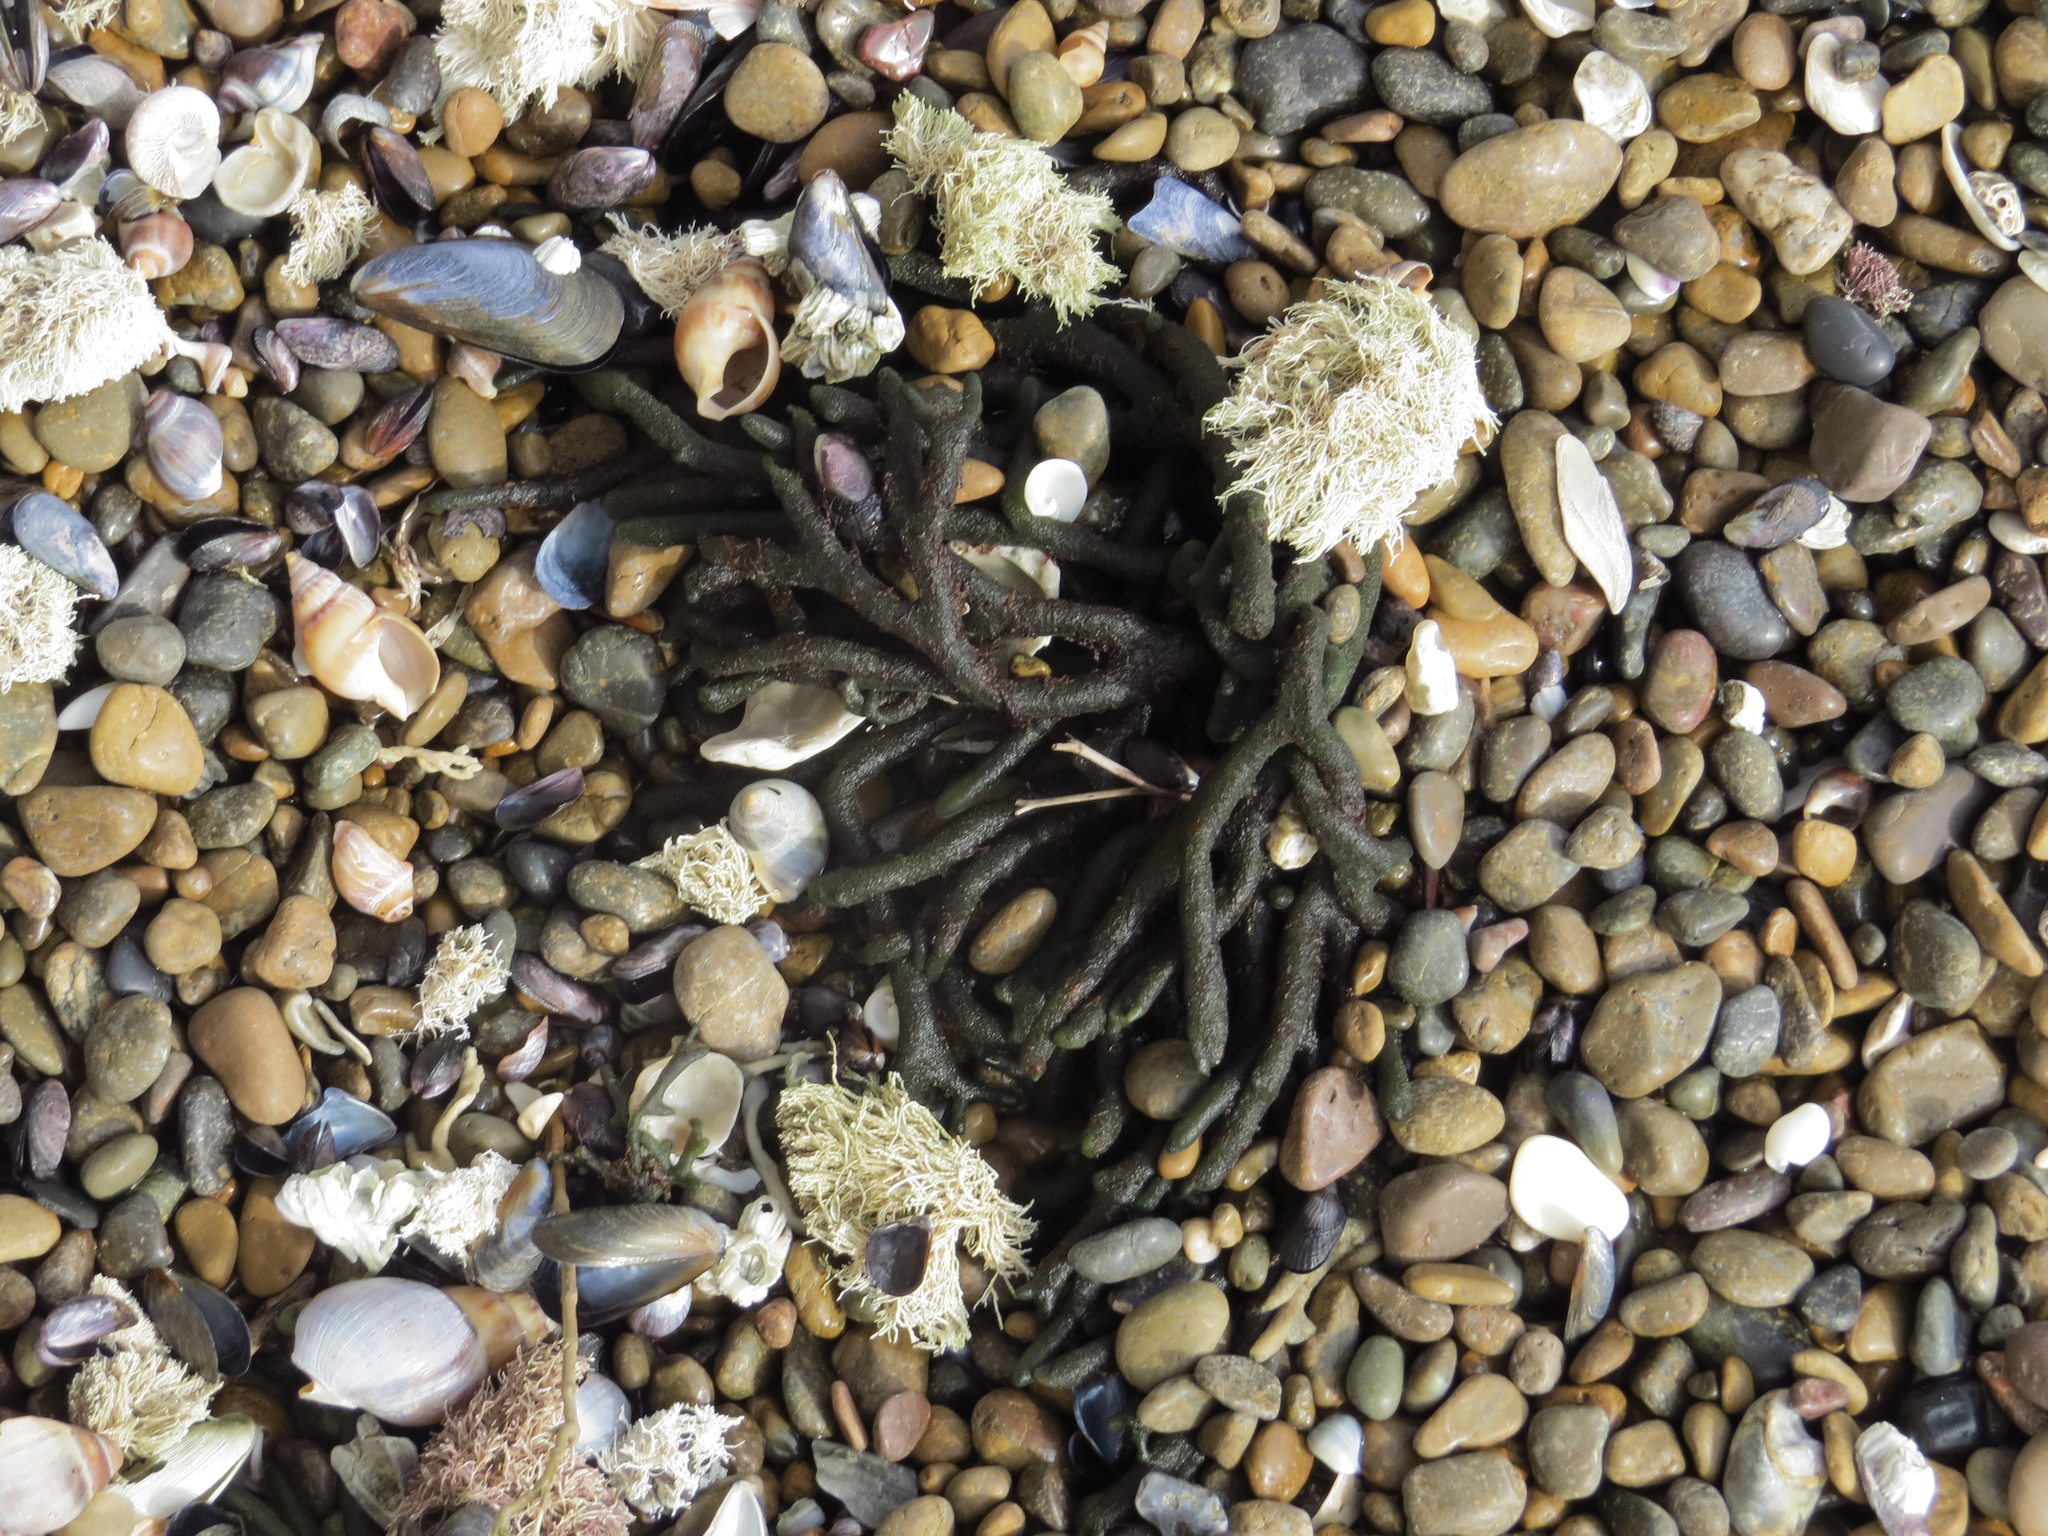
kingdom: Plantae
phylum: Chlorophyta
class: Ulvophyceae
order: Bryopsidales
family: Codiaceae
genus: Codium
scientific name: Codium fragile
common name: Dead man's fingers
